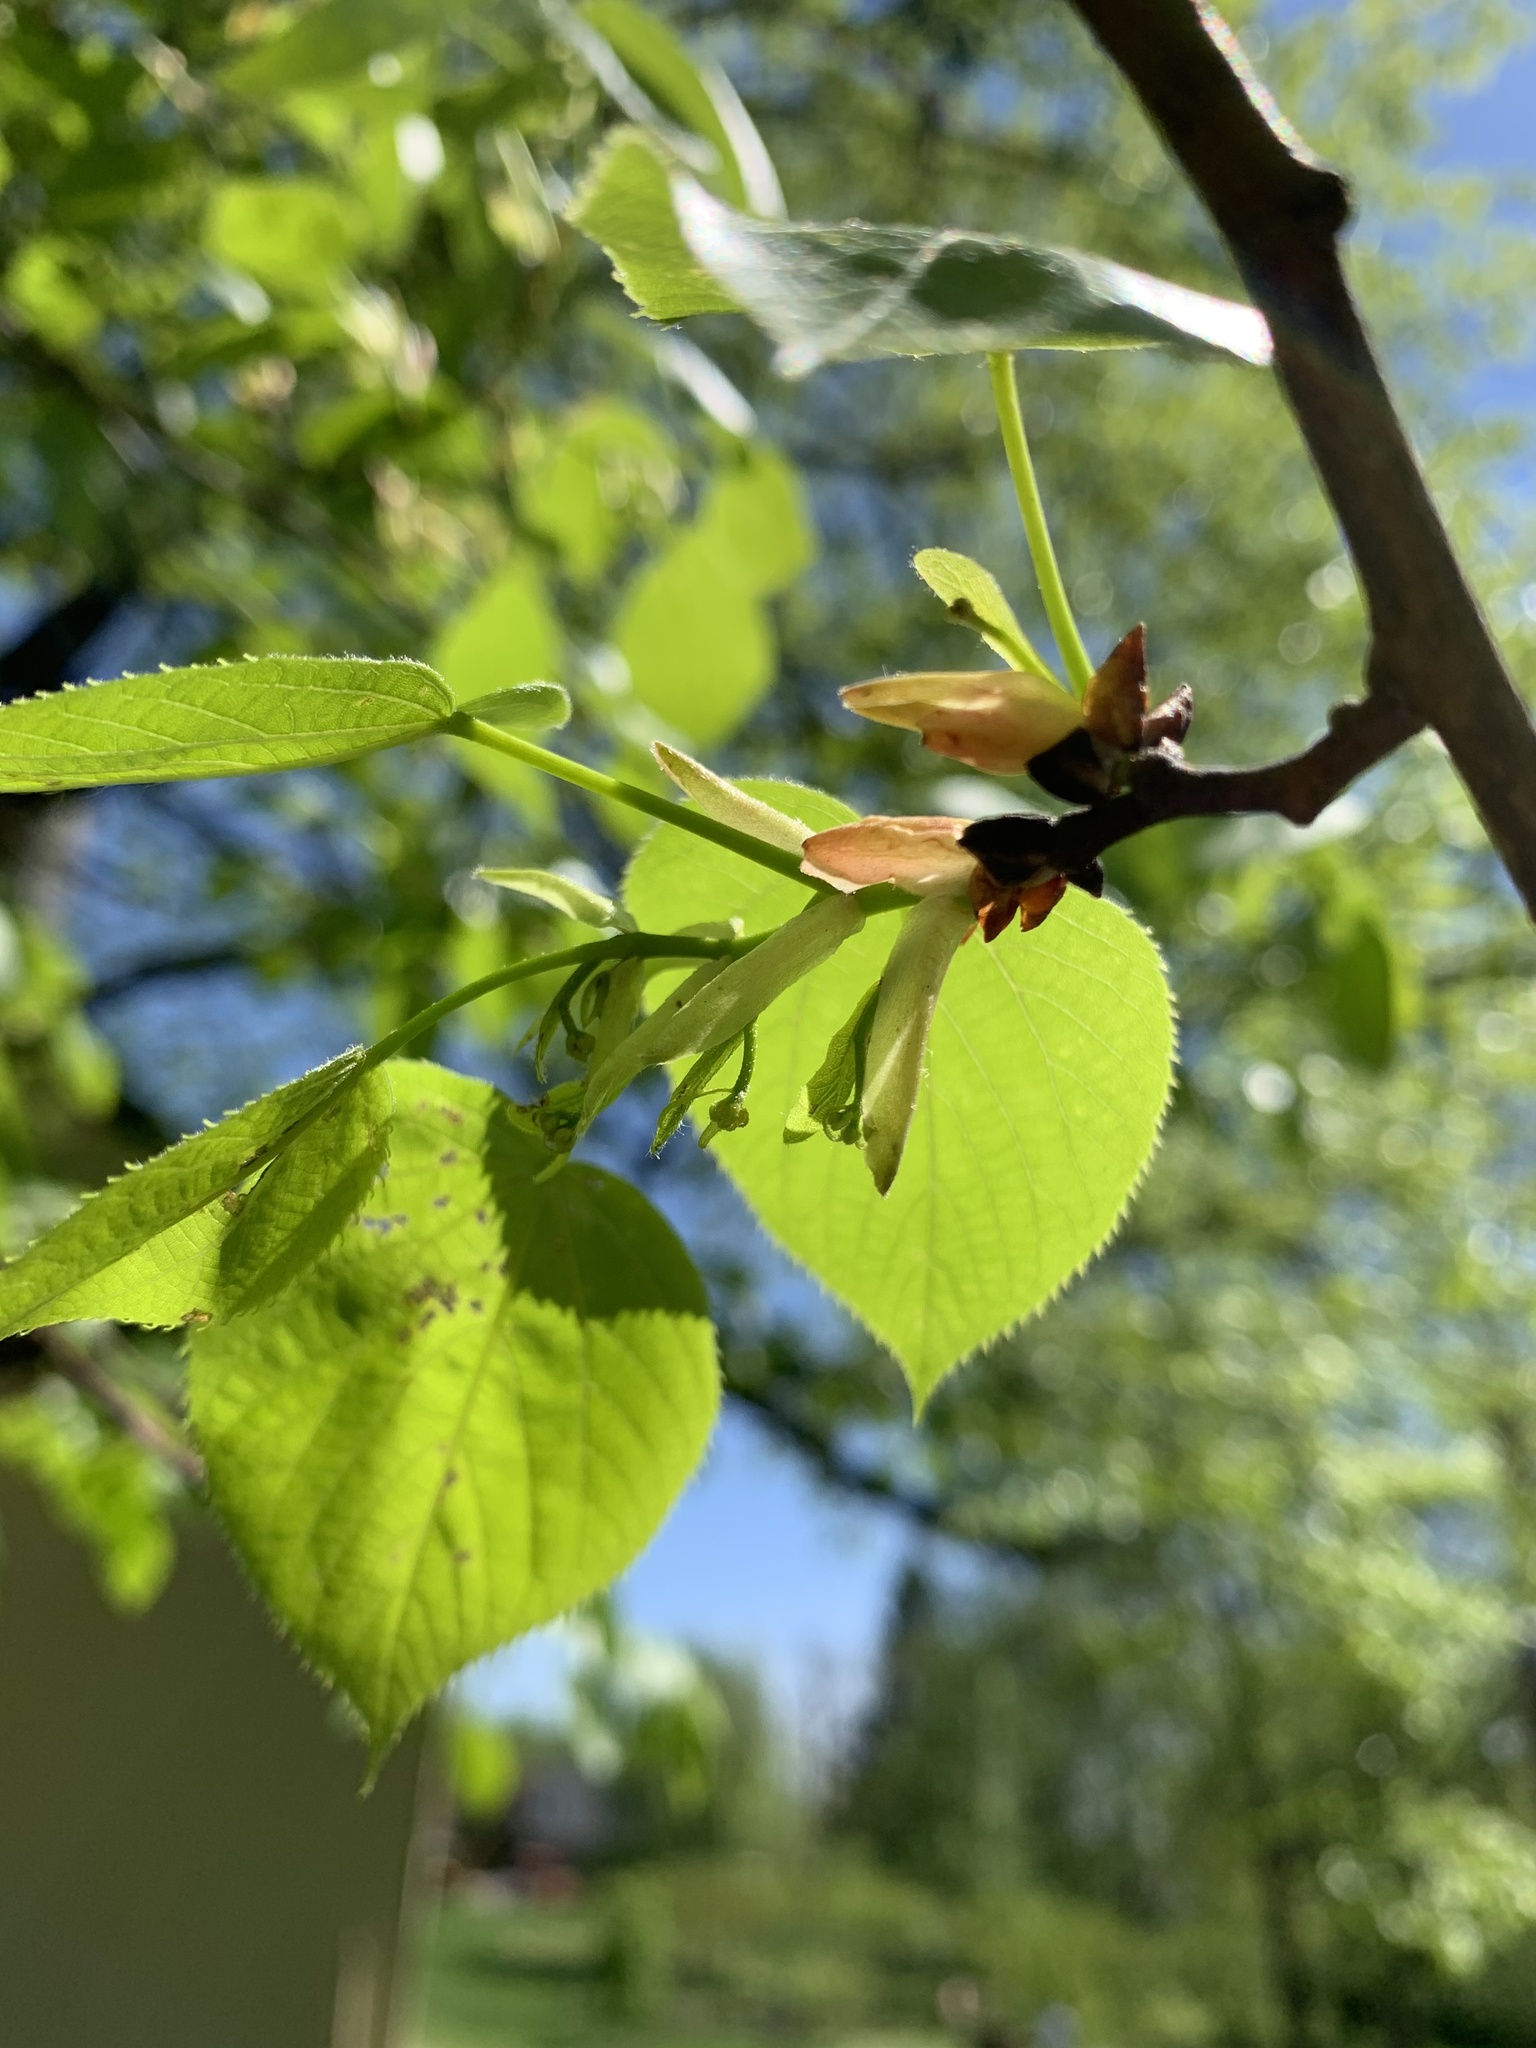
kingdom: Plantae
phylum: Tracheophyta
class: Magnoliopsida
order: Malvales
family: Malvaceae
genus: Tilia
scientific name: Tilia americana
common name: Basswood
